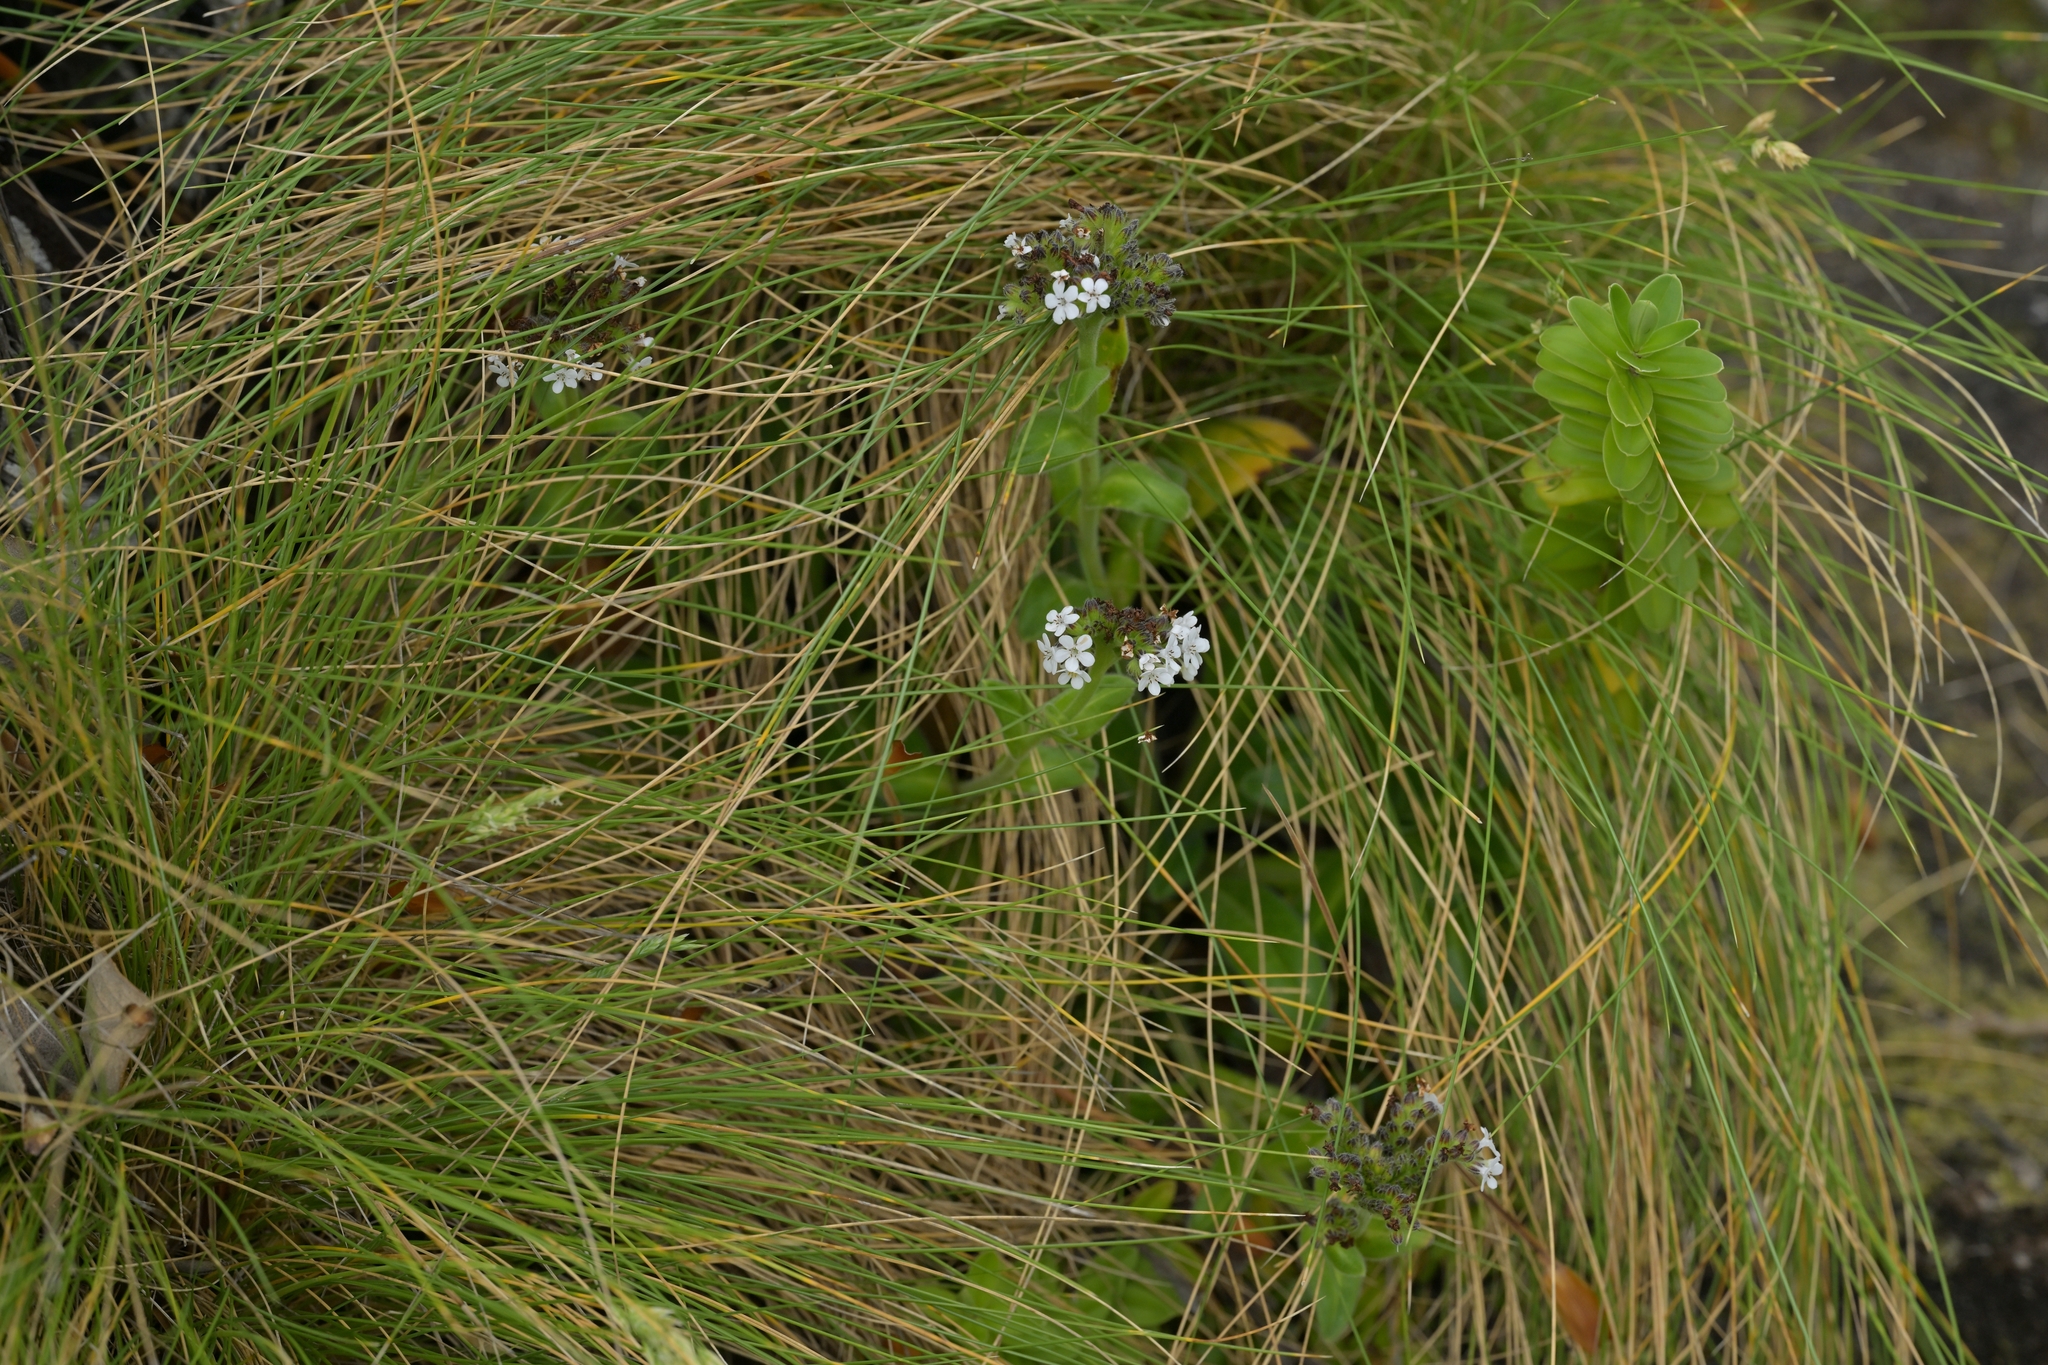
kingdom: Plantae
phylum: Tracheophyta
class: Magnoliopsida
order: Boraginales
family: Boraginaceae
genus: Myosotis
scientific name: Myosotis rakiura
